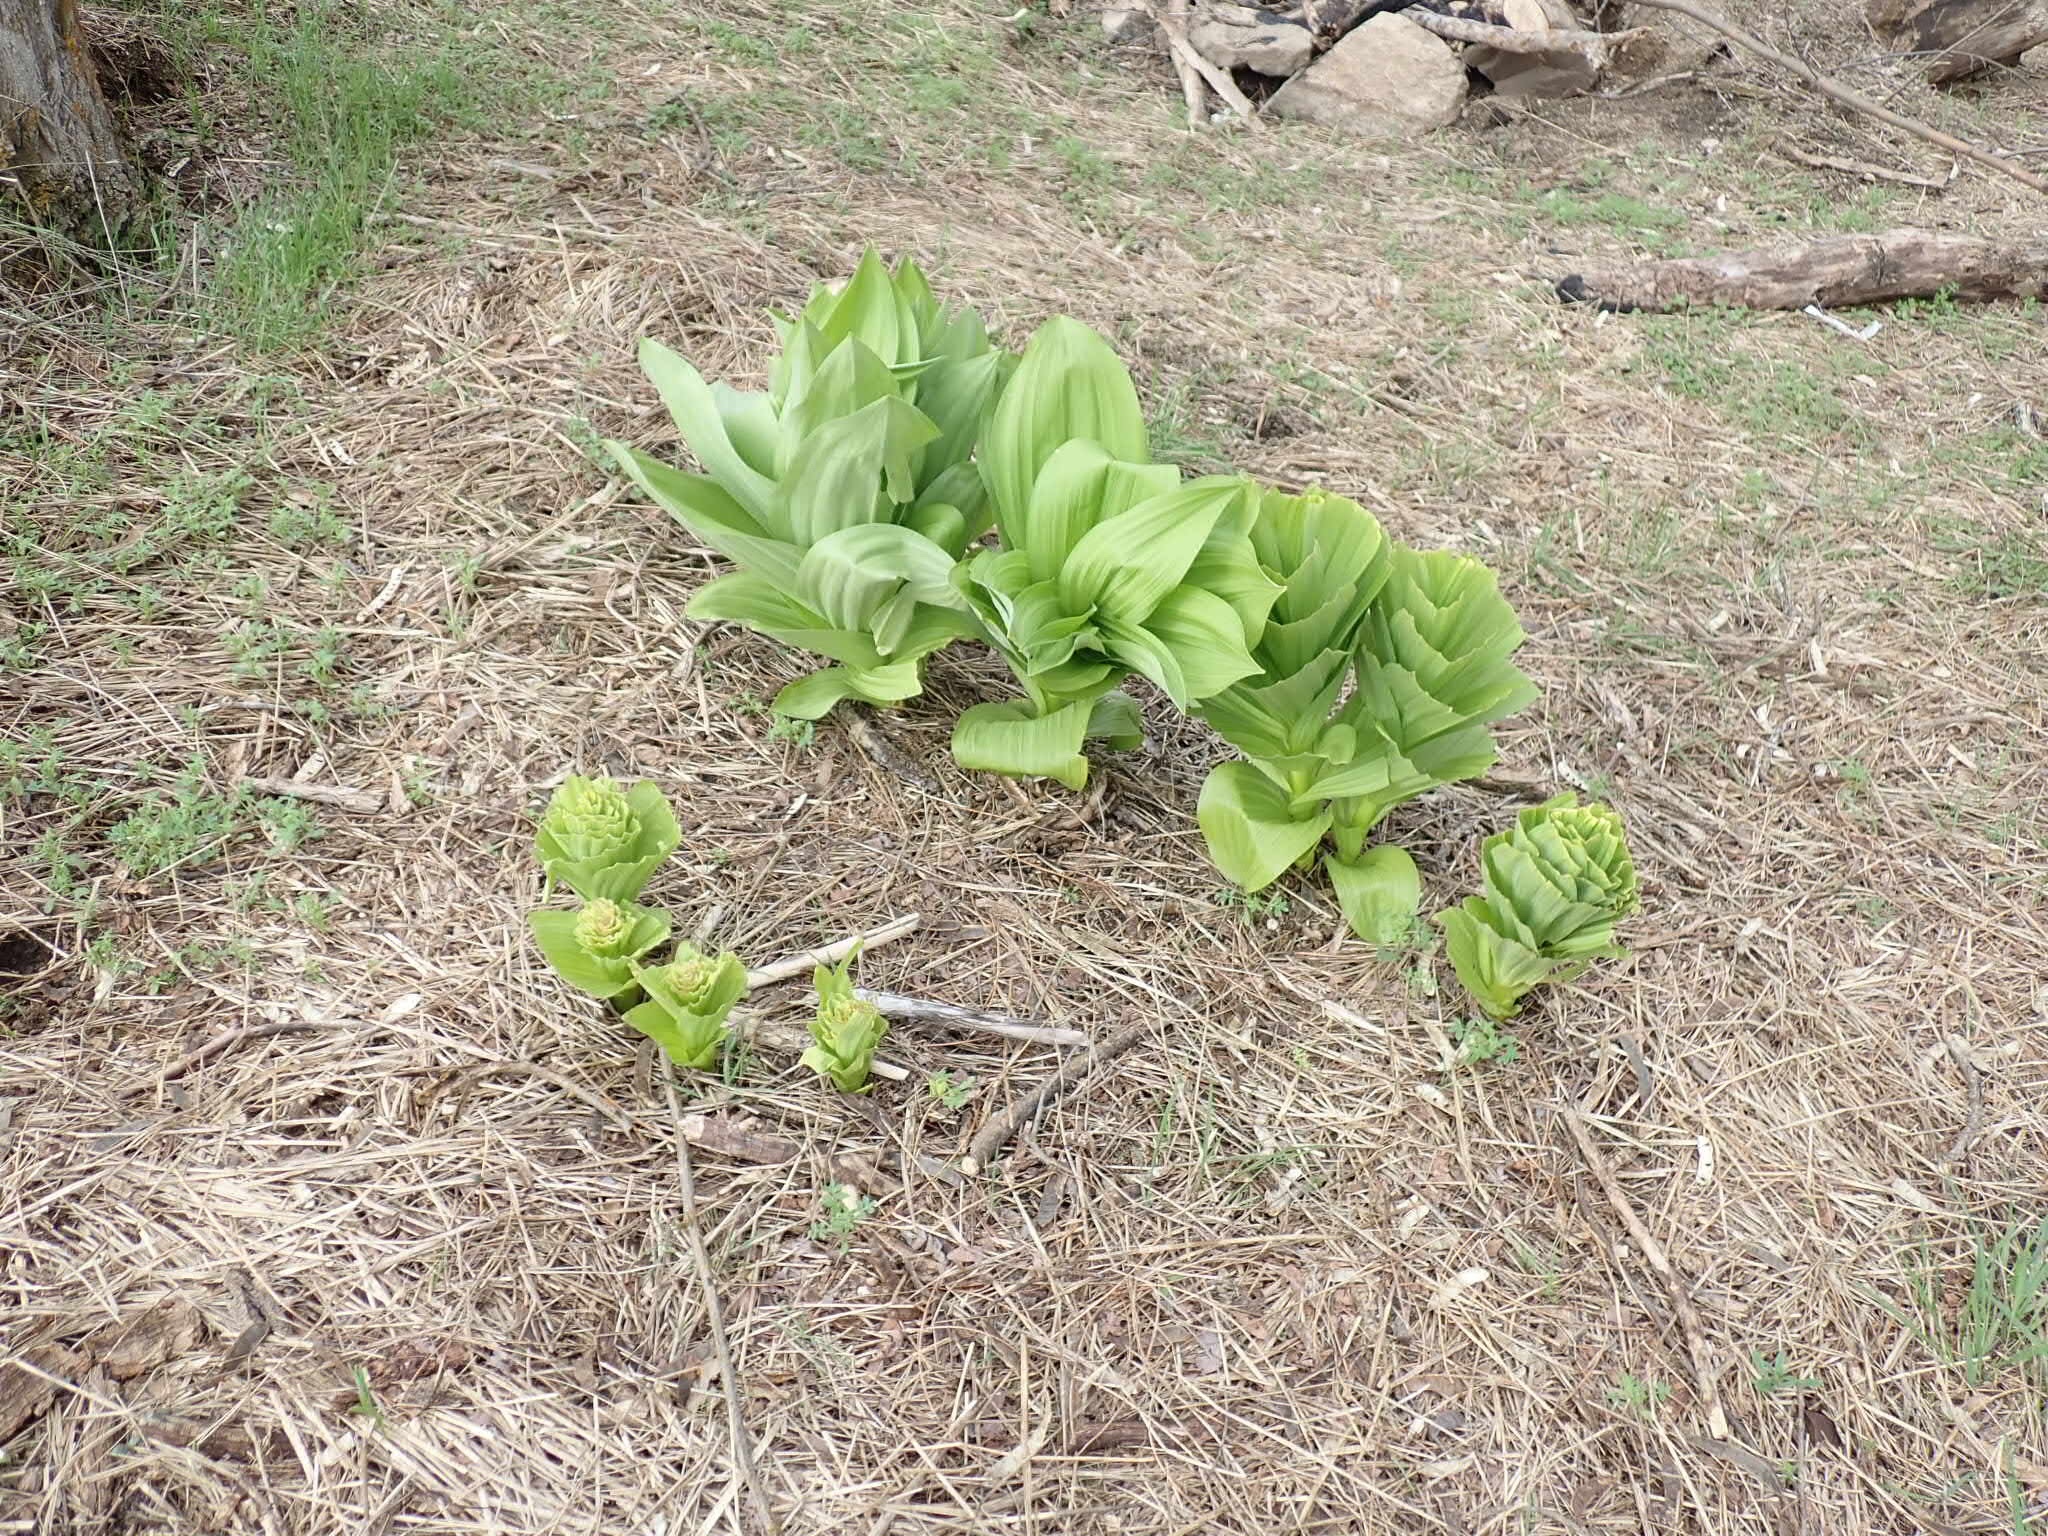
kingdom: Plantae
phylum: Tracheophyta
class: Liliopsida
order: Liliales
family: Melanthiaceae
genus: Veratrum
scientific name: Veratrum viride
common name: American false hellebore
